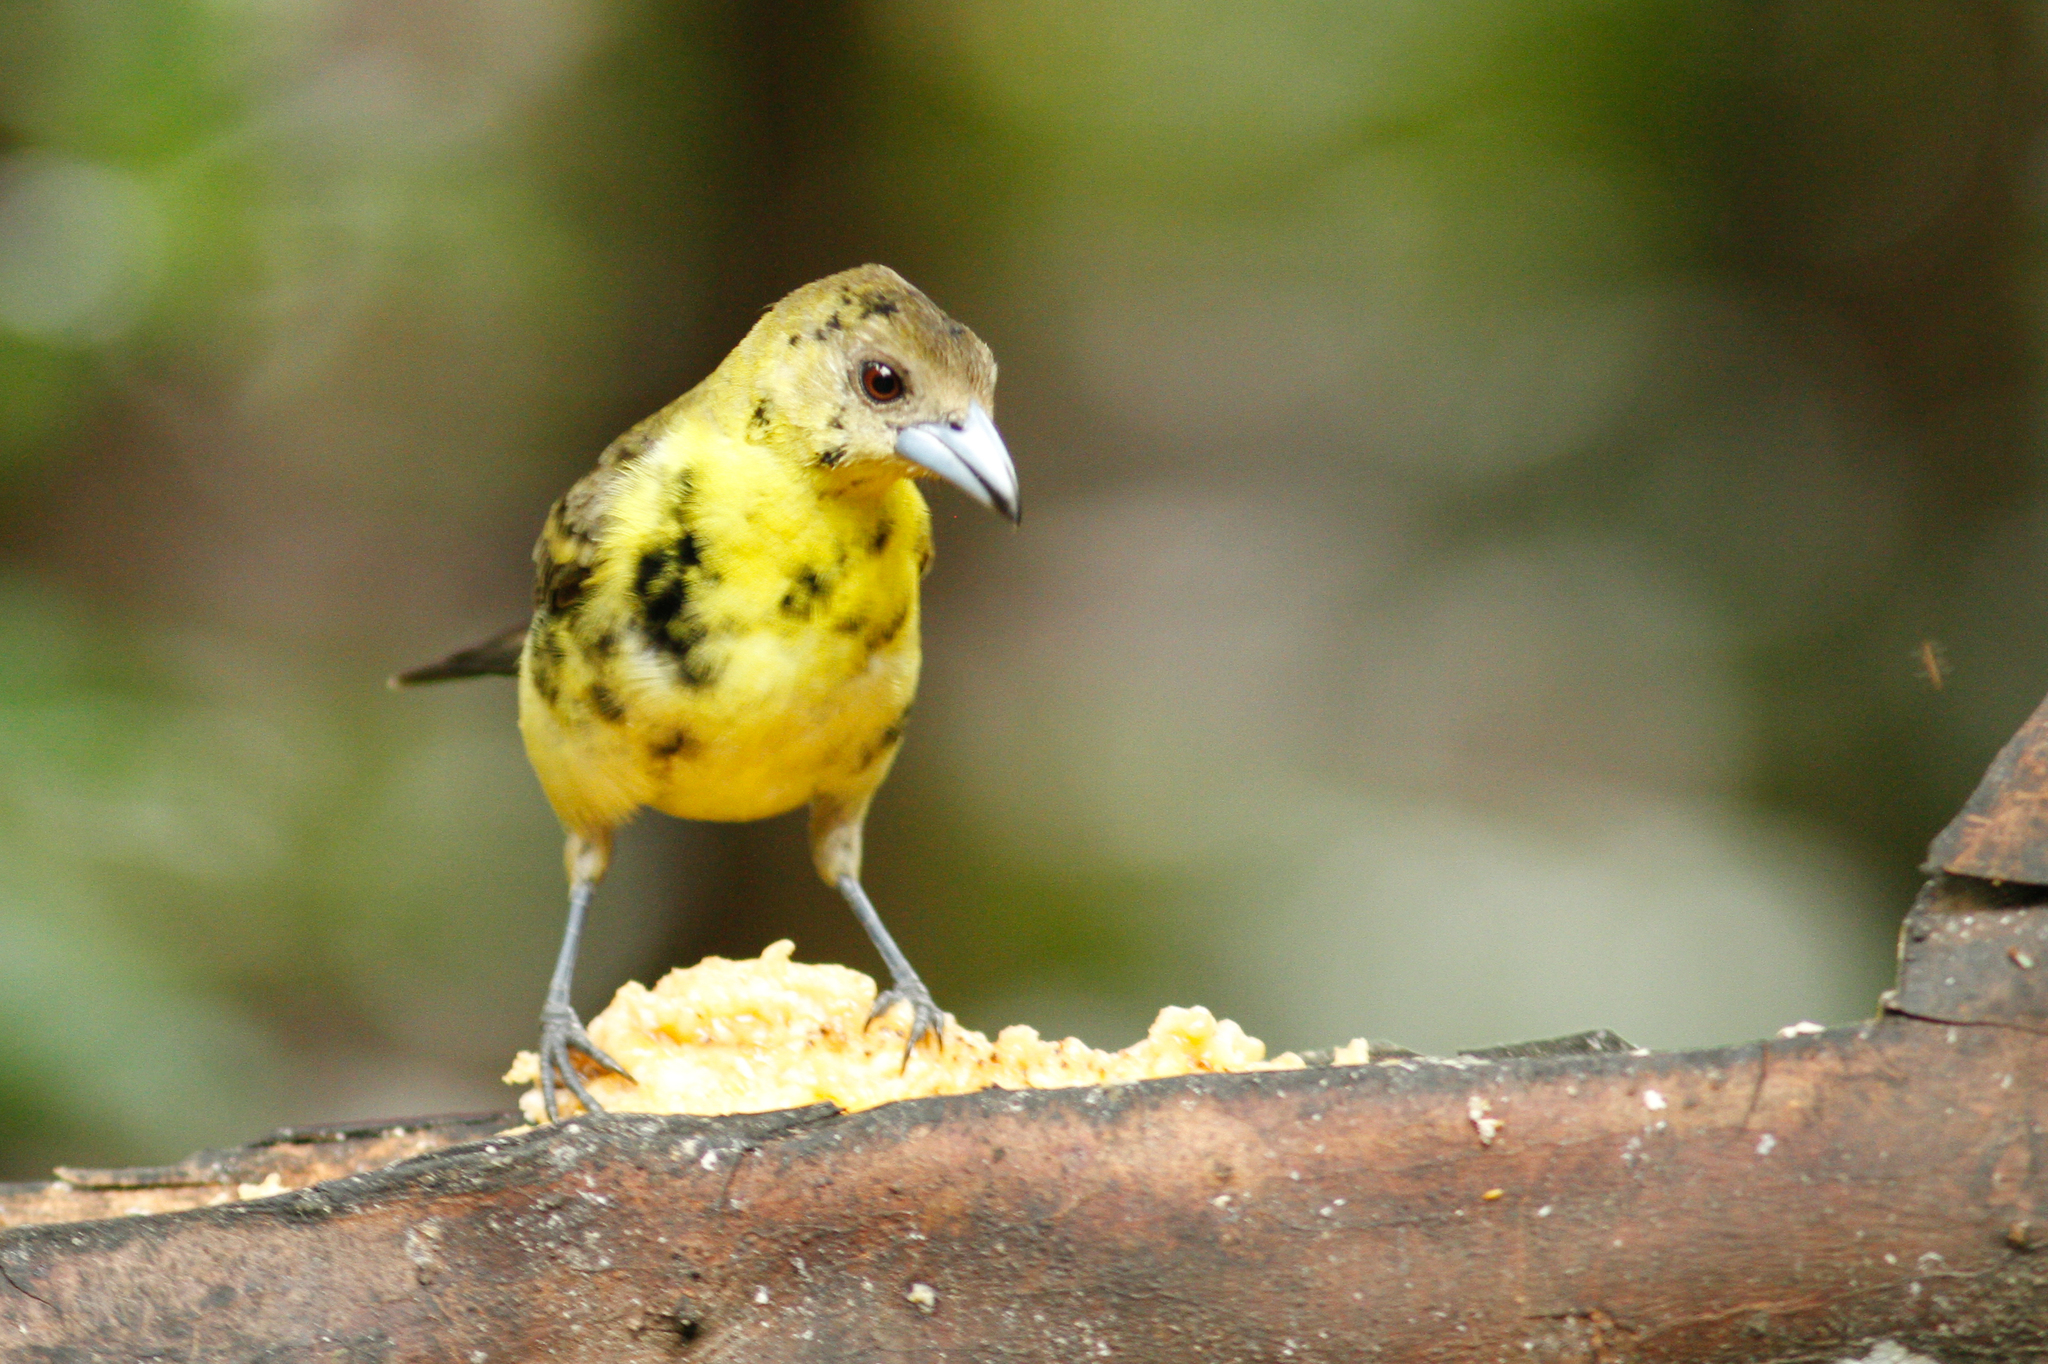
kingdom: Animalia
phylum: Chordata
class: Aves
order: Passeriformes
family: Thraupidae
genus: Ramphocelus
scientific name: Ramphocelus icteronotus
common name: Lemon-rumped tanager
